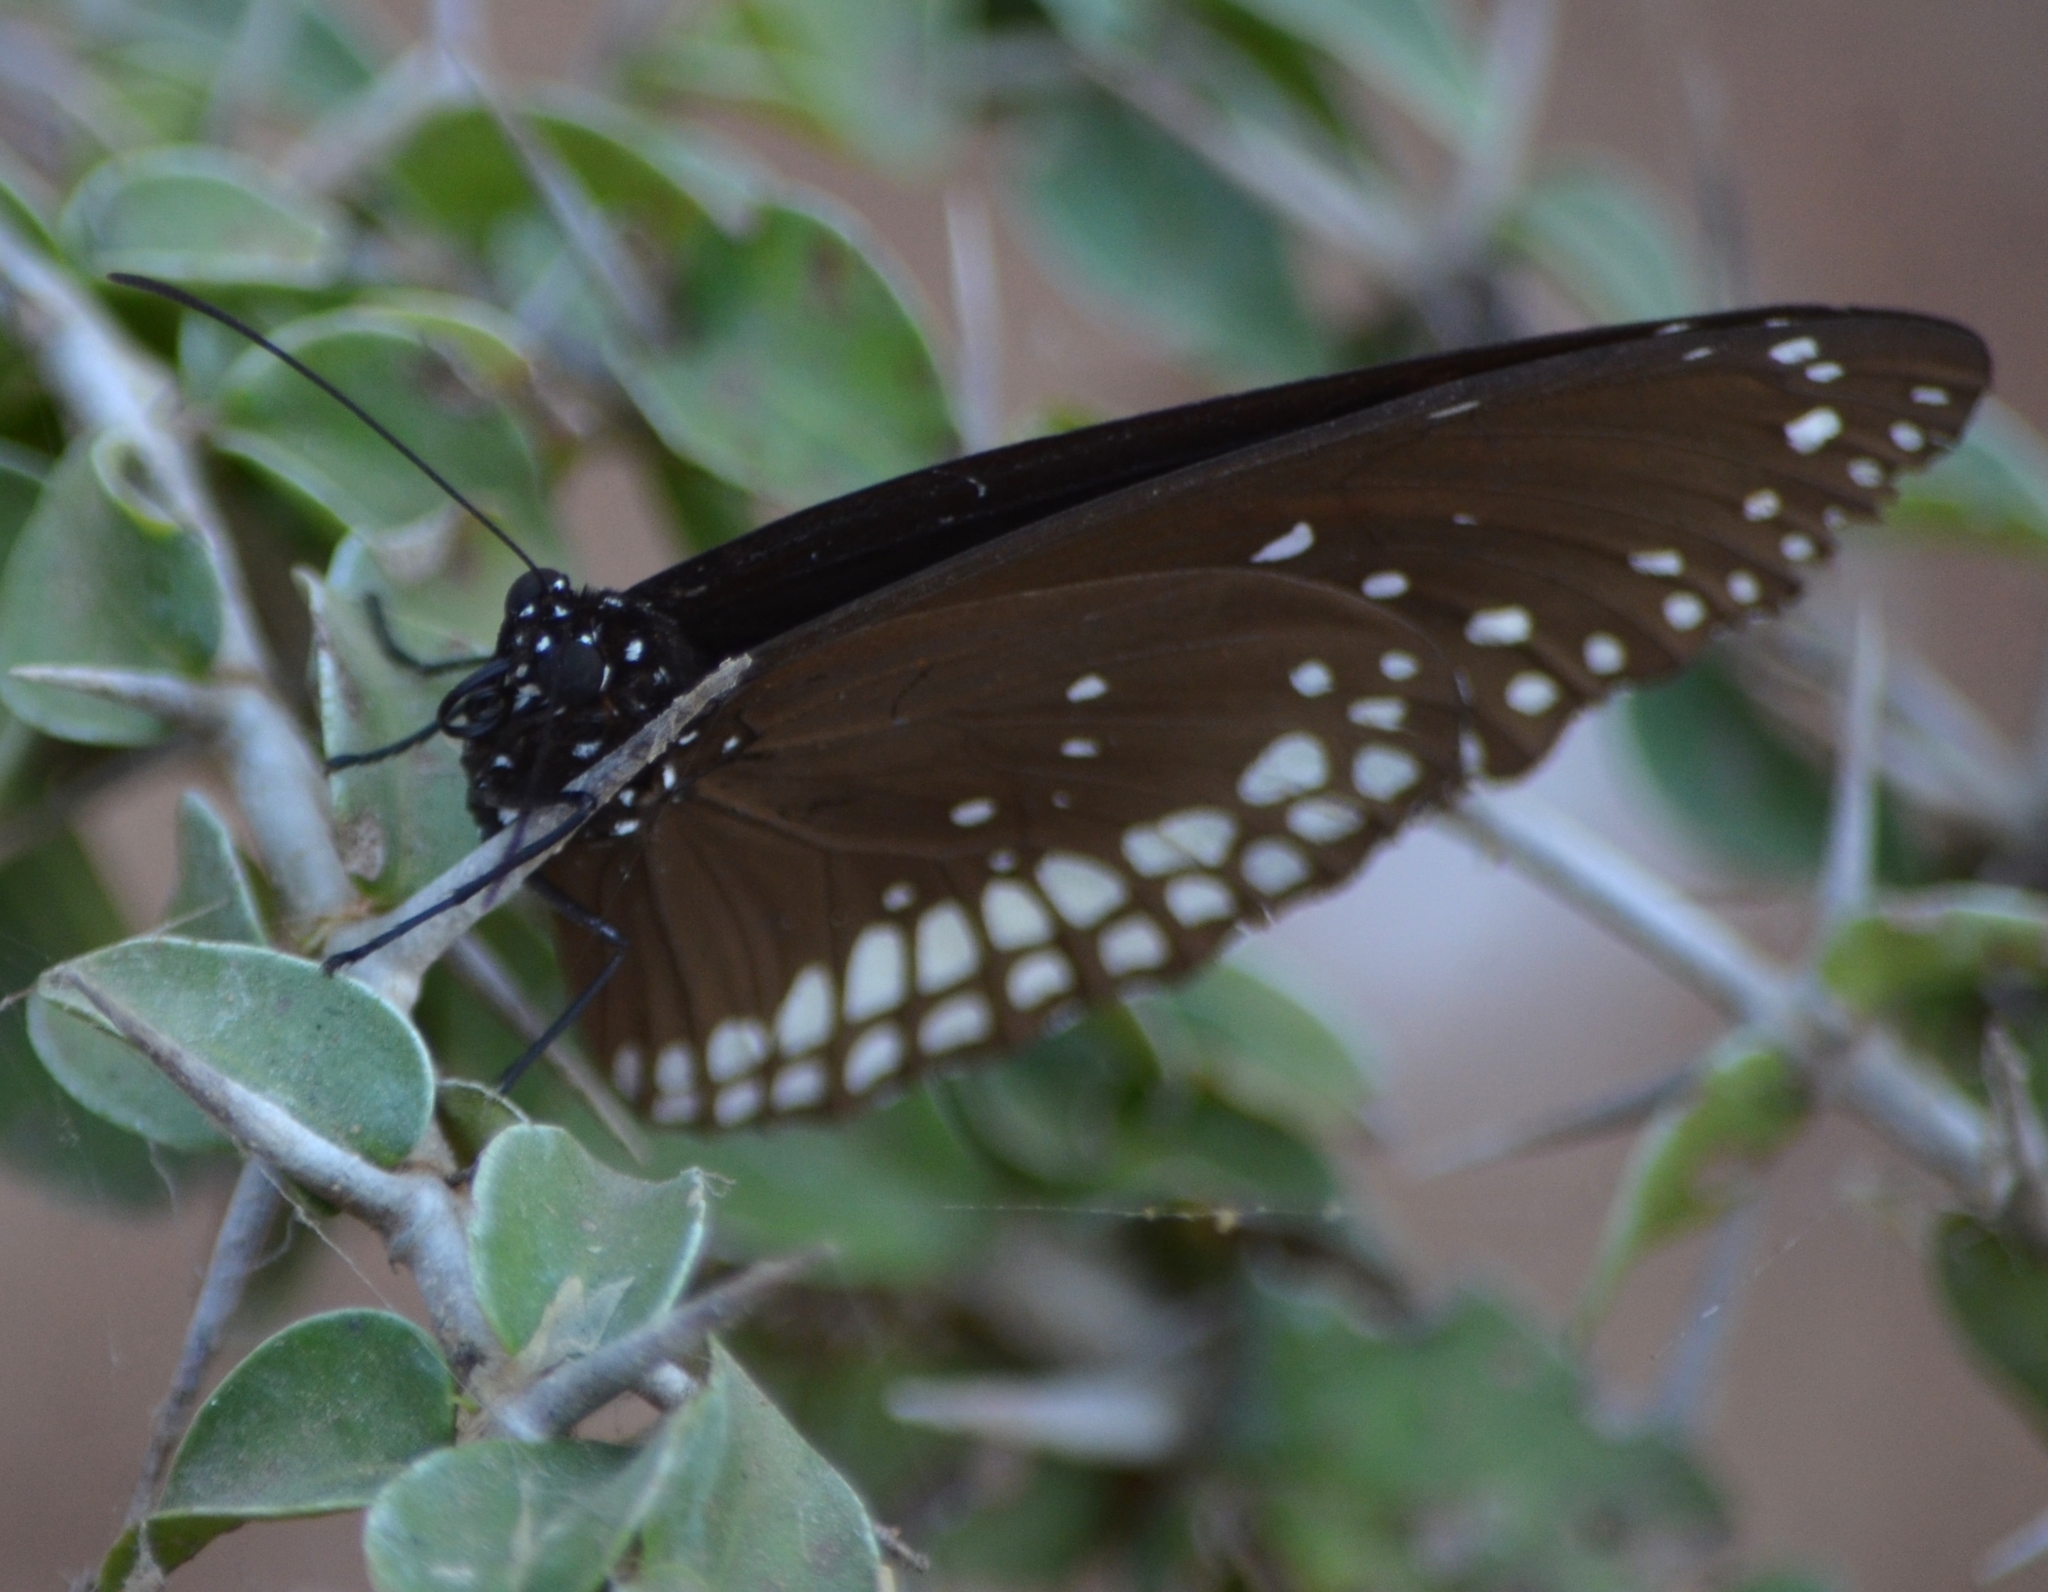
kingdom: Animalia
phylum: Arthropoda
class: Insecta
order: Lepidoptera
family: Nymphalidae
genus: Euploea
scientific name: Euploea core
